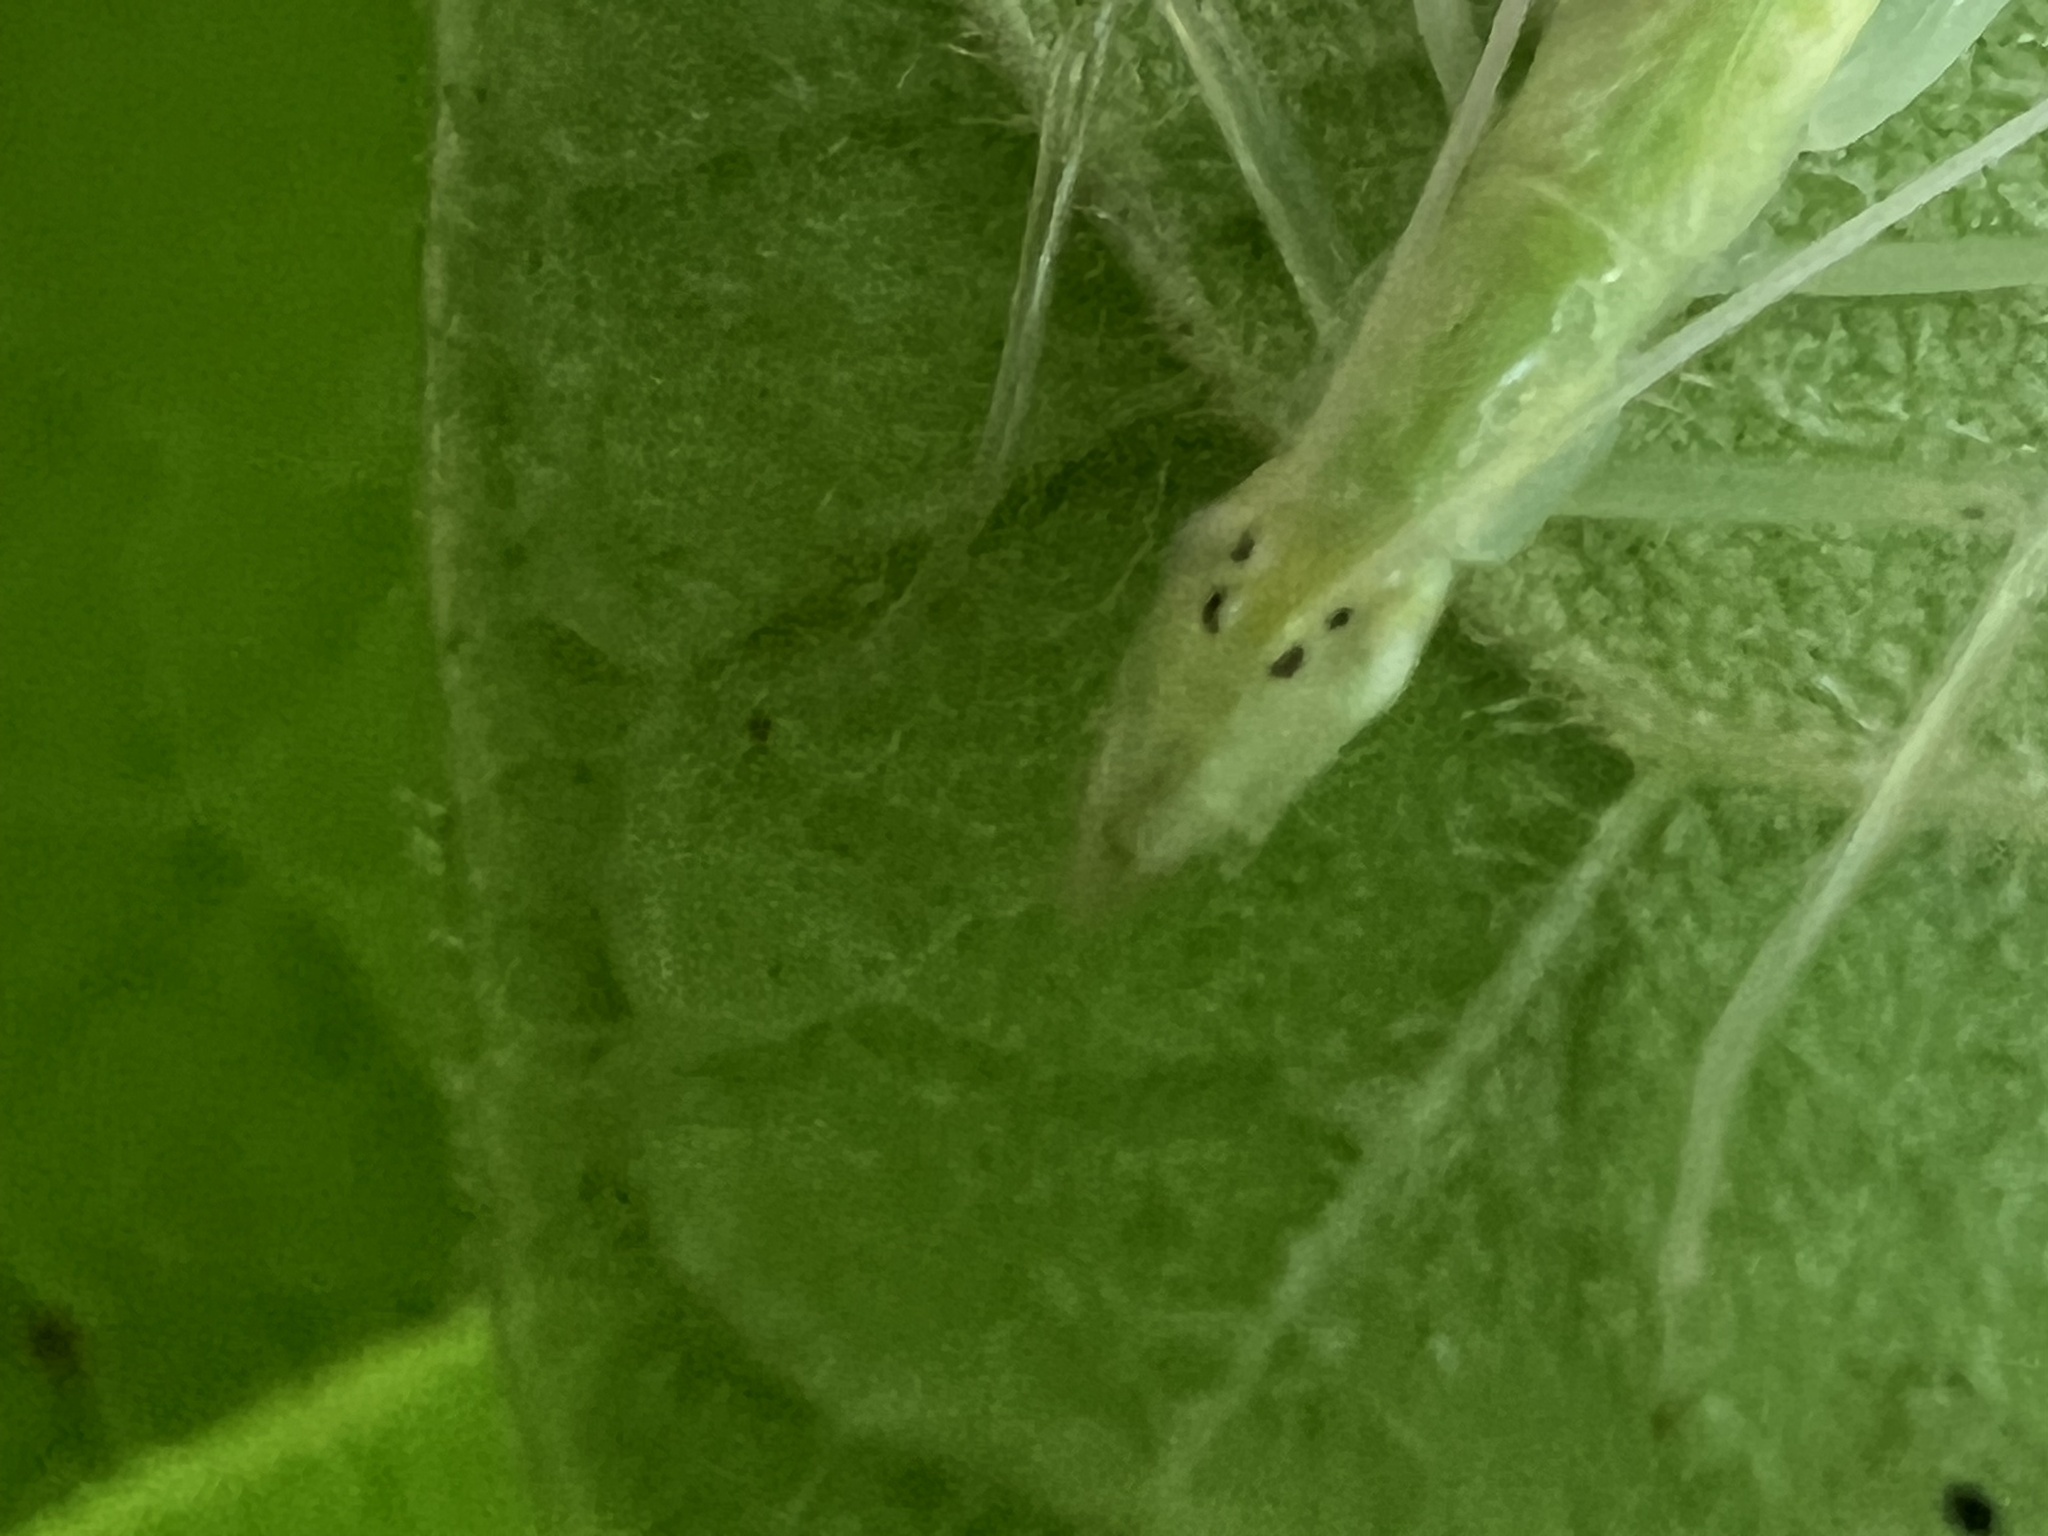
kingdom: Animalia
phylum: Arthropoda
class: Insecta
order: Orthoptera
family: Gryllidae
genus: Oecanthus
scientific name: Oecanthus niveus
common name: Narrow-winged tree cricket
